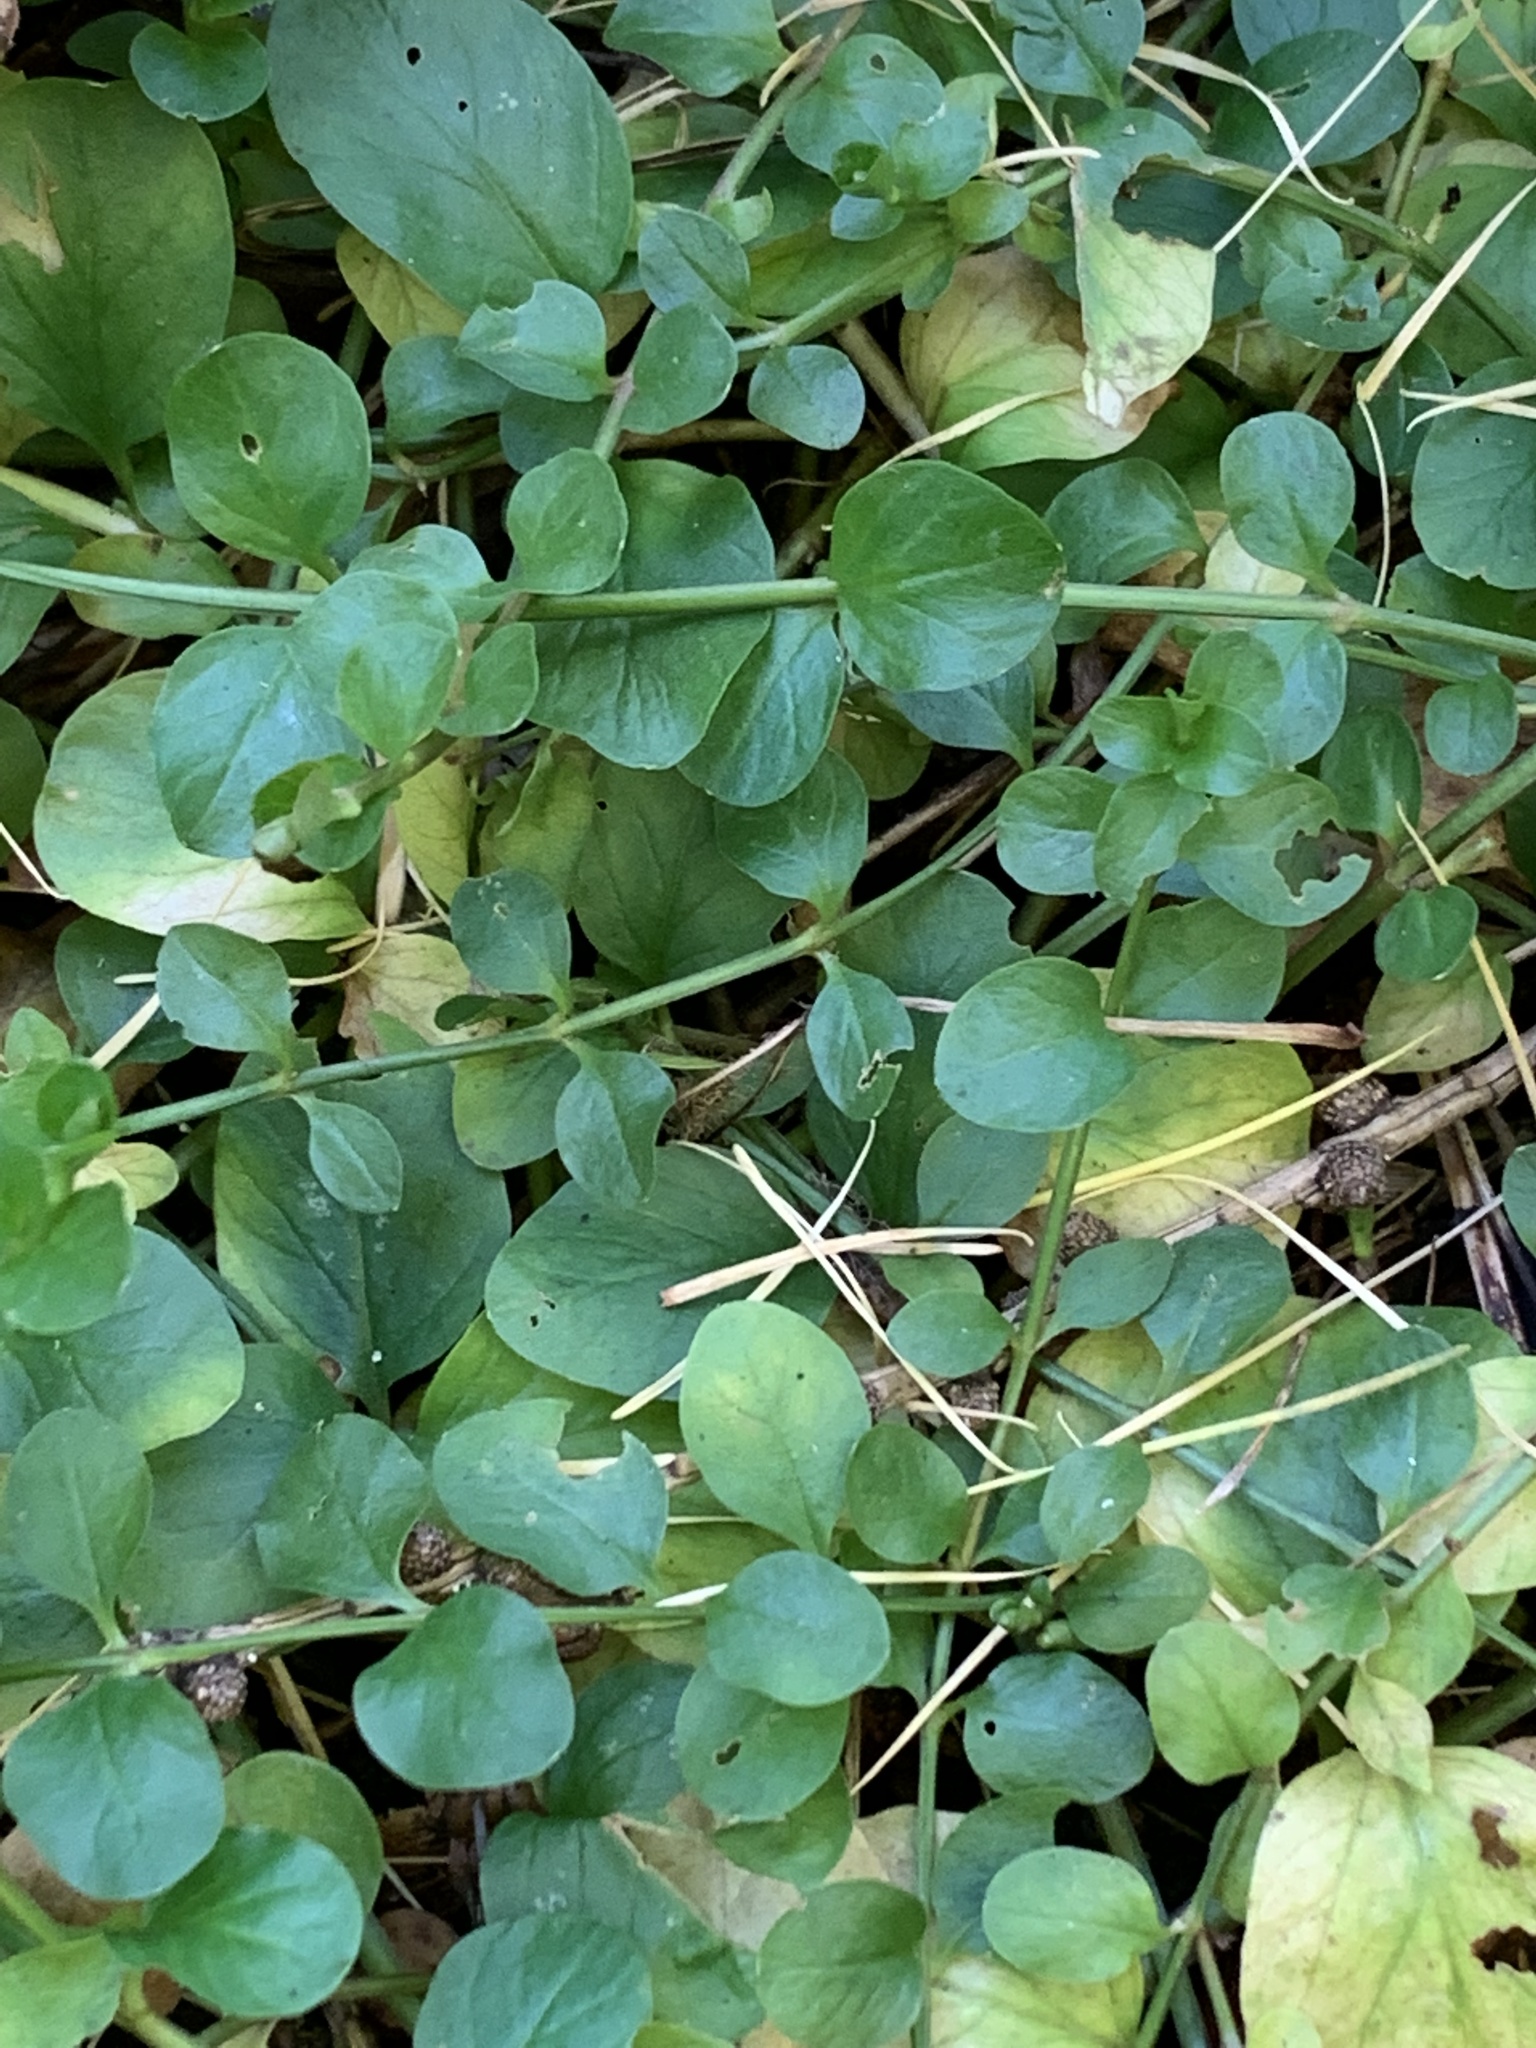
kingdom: Plantae
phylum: Tracheophyta
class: Magnoliopsida
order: Ericales
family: Primulaceae
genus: Lysimachia
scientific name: Lysimachia nummularia
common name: Moneywort
